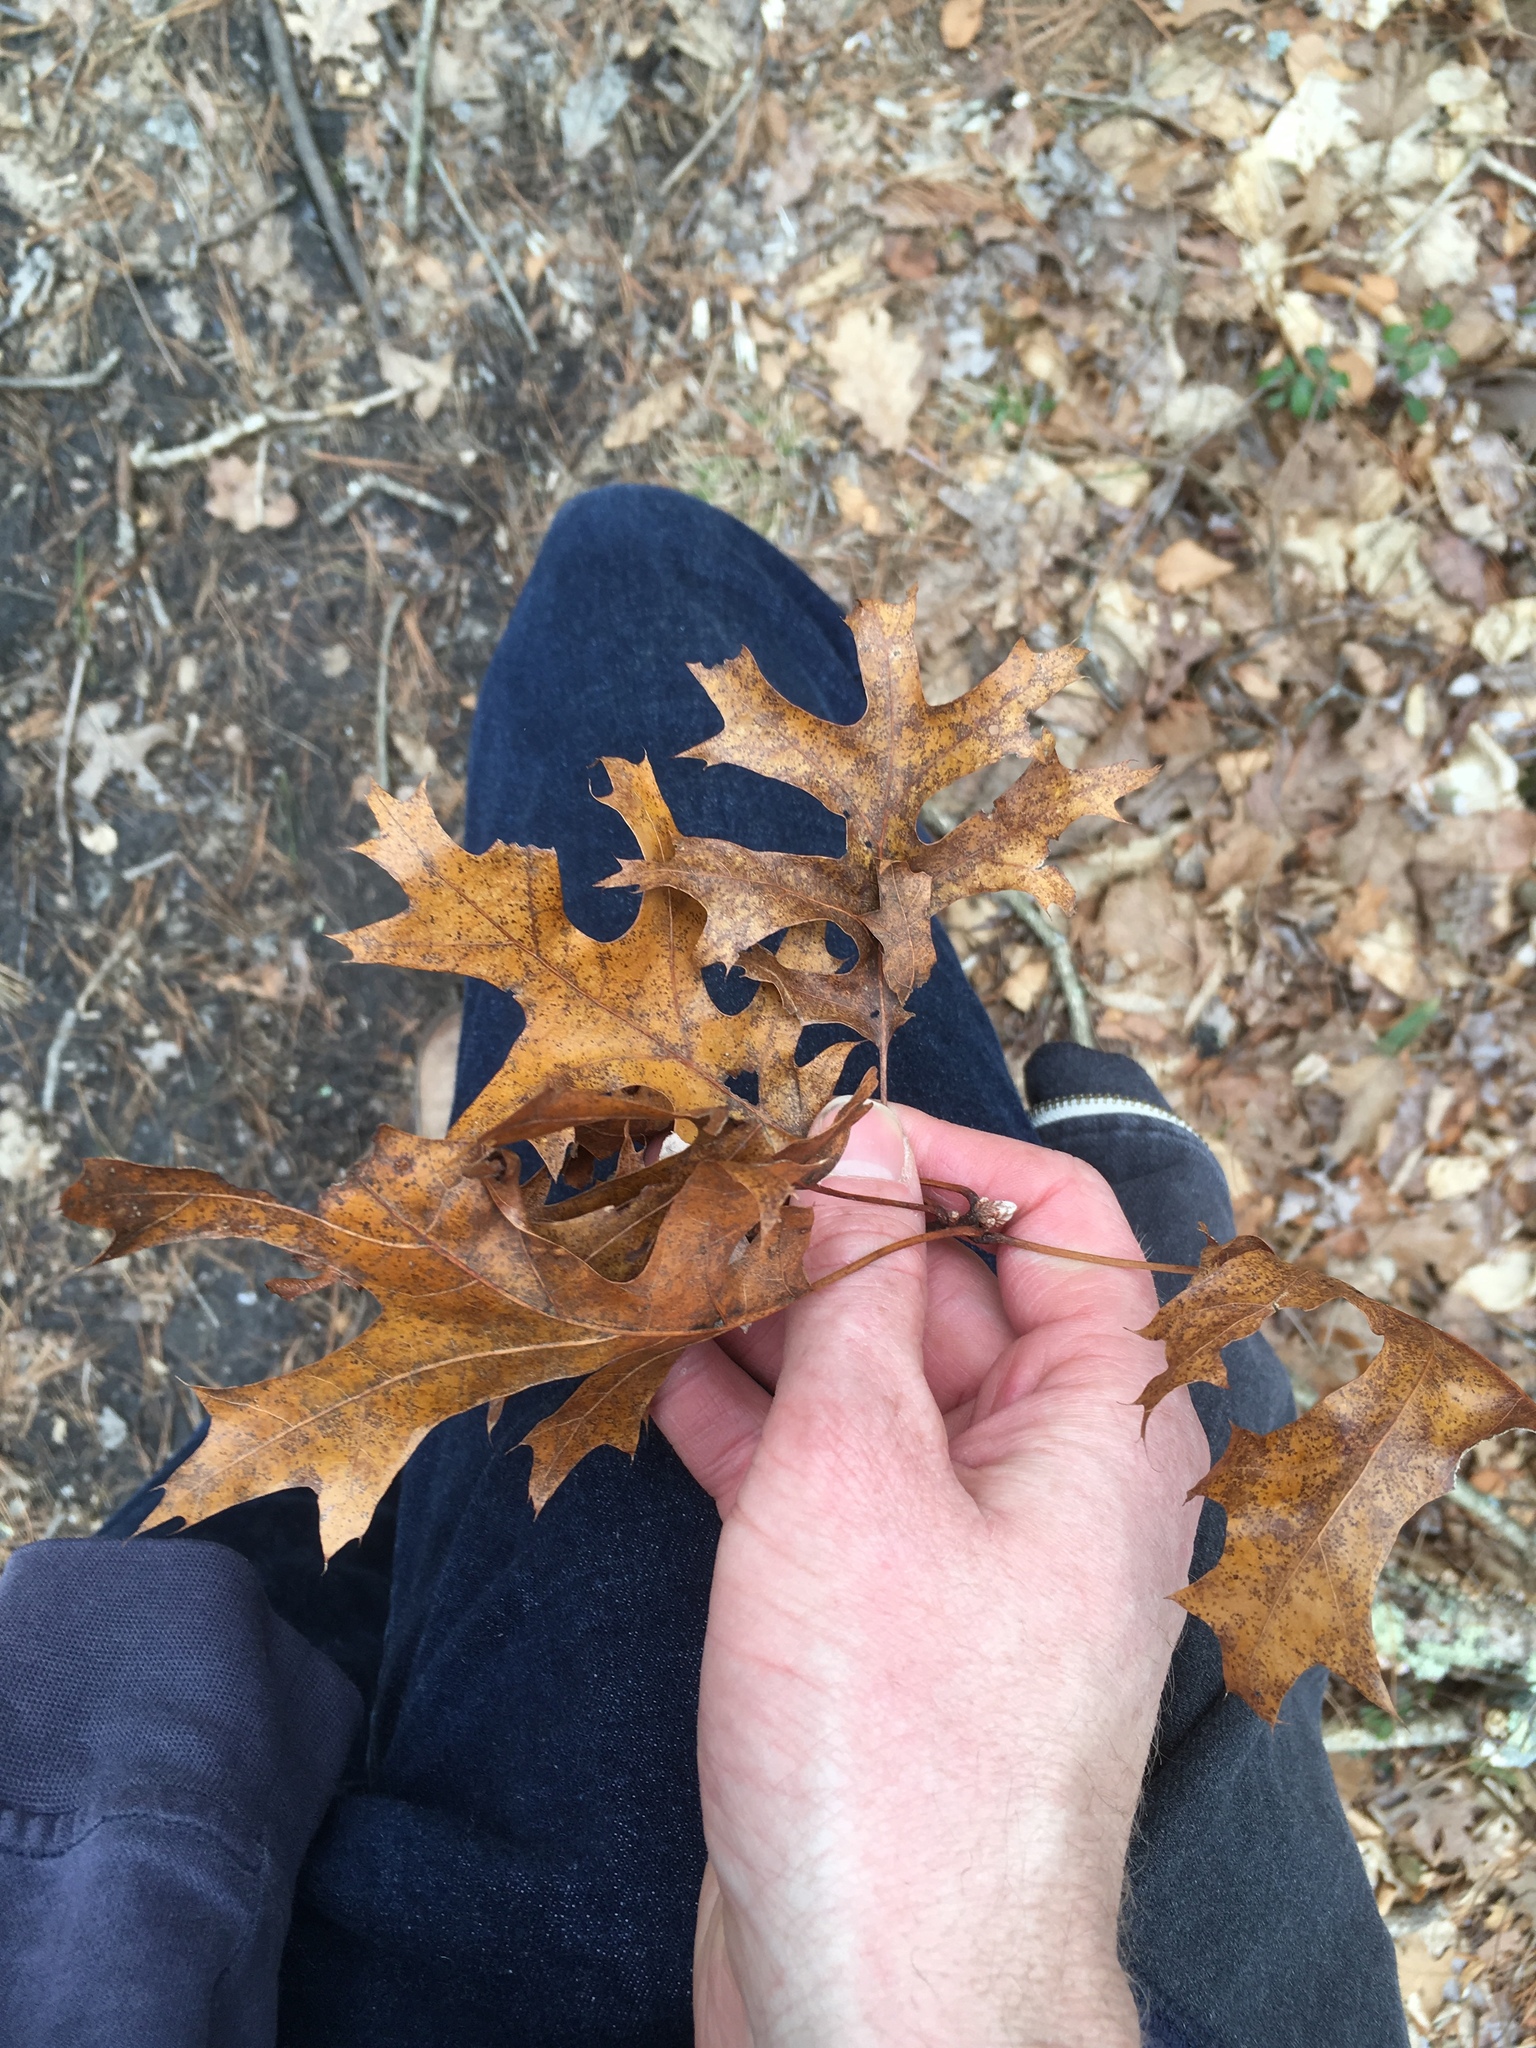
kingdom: Plantae
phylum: Tracheophyta
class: Magnoliopsida
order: Fagales
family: Fagaceae
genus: Quercus
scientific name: Quercus coccinea
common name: Scarlet oak
